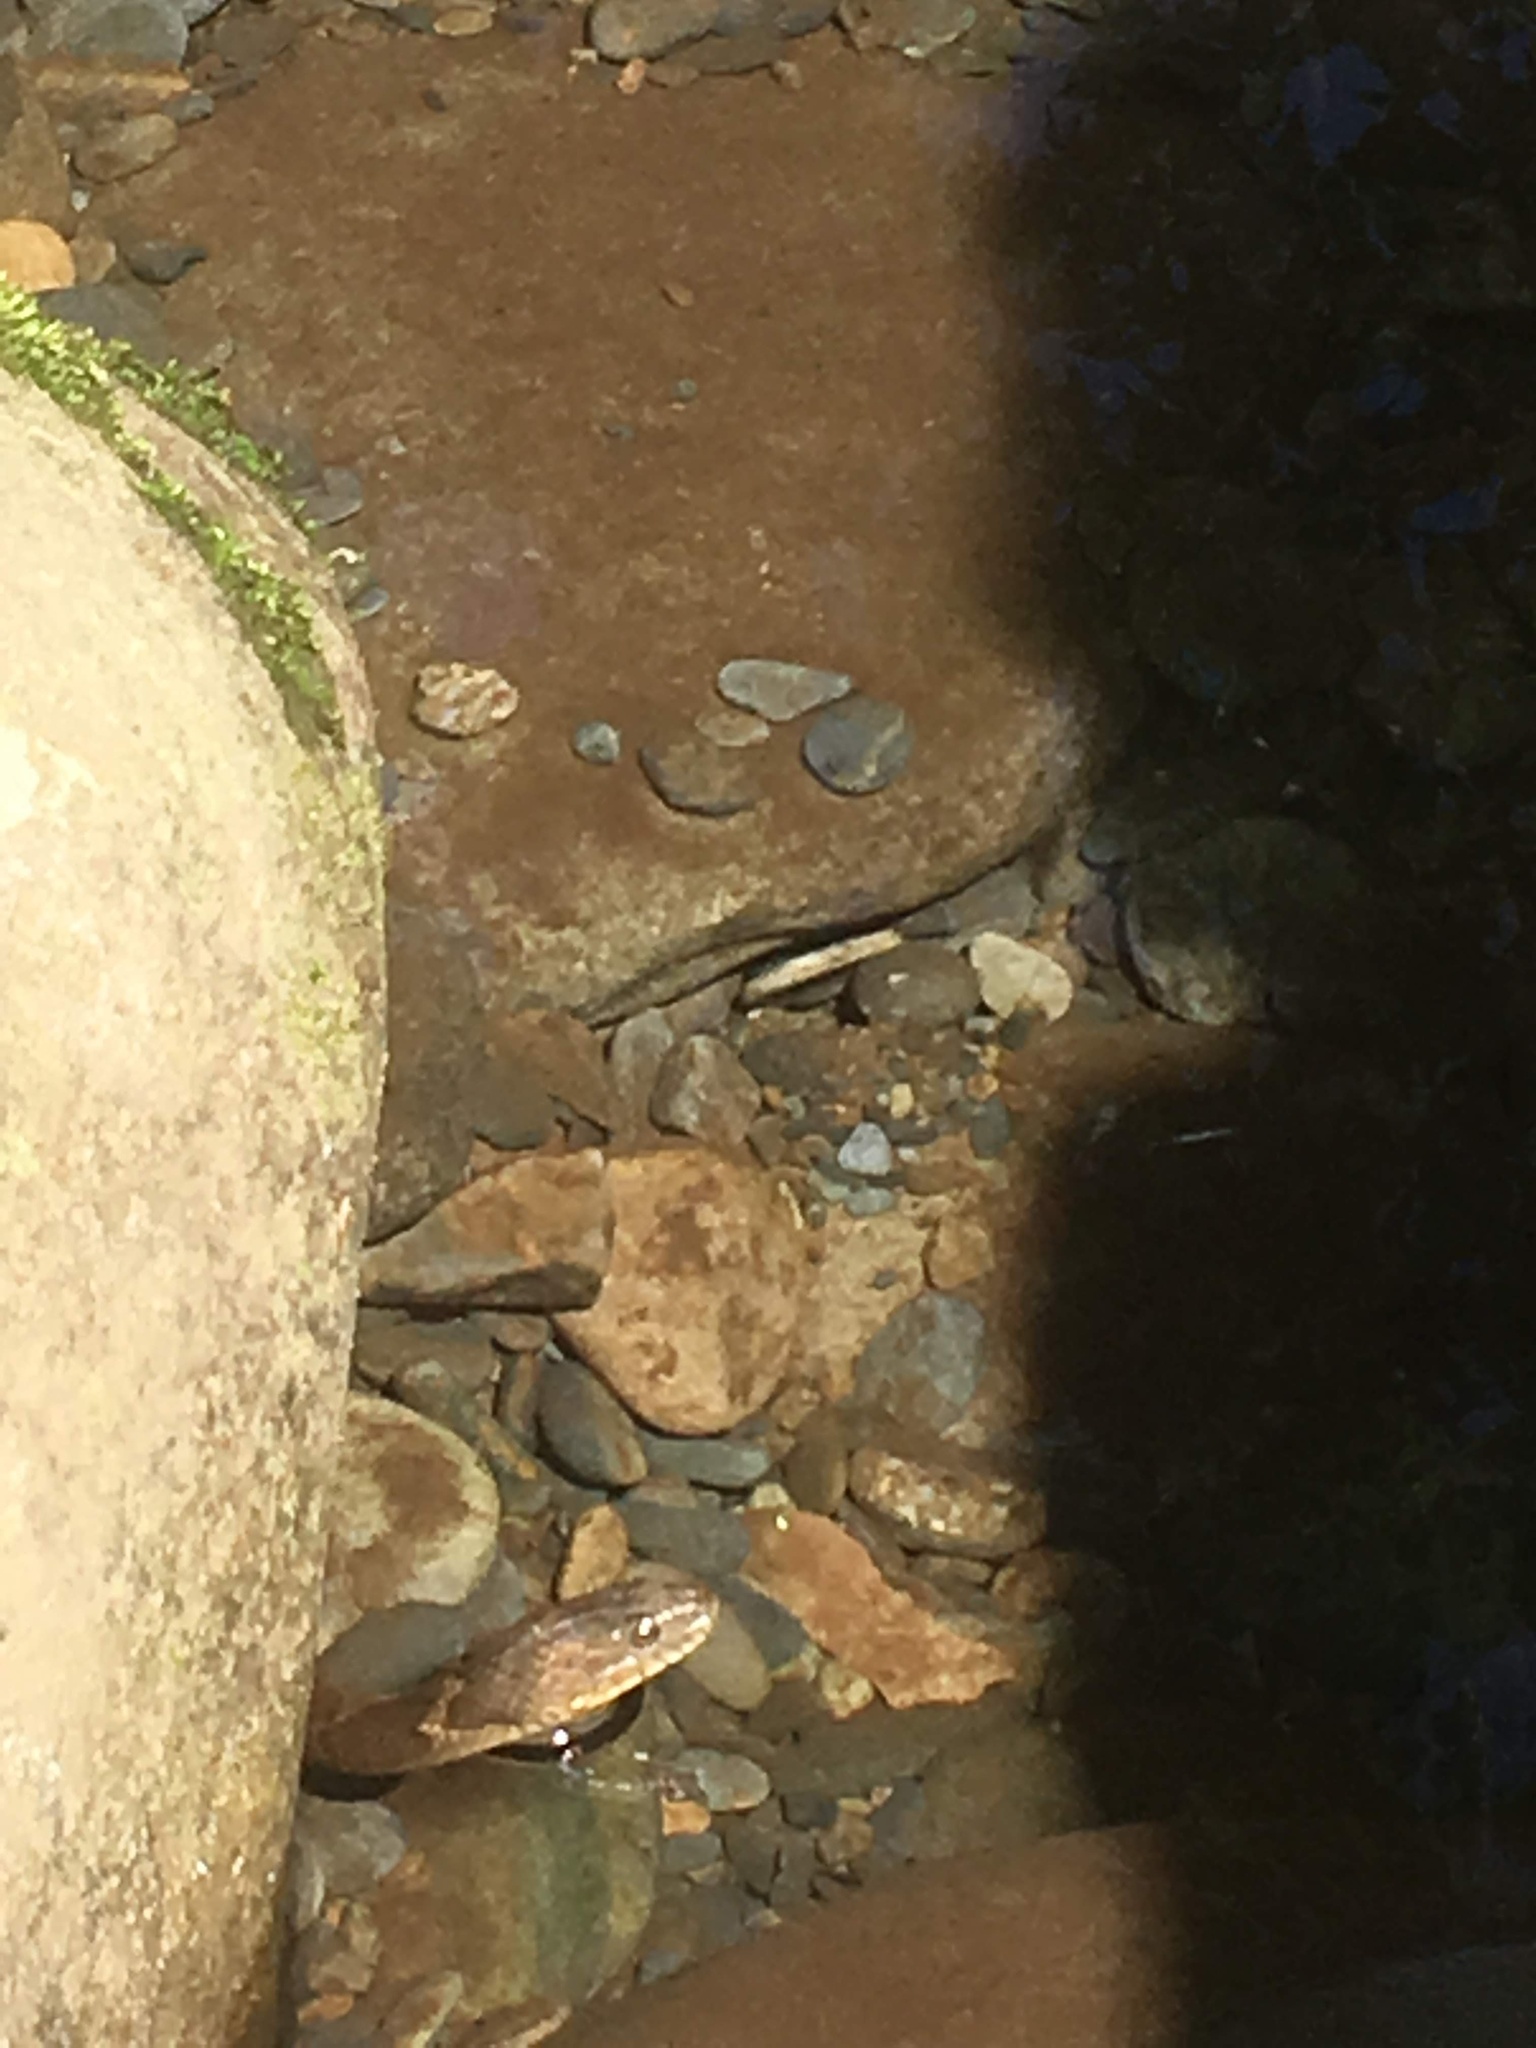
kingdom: Animalia
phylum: Chordata
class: Squamata
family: Colubridae
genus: Nerodia
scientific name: Nerodia sipedon
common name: Northern water snake
